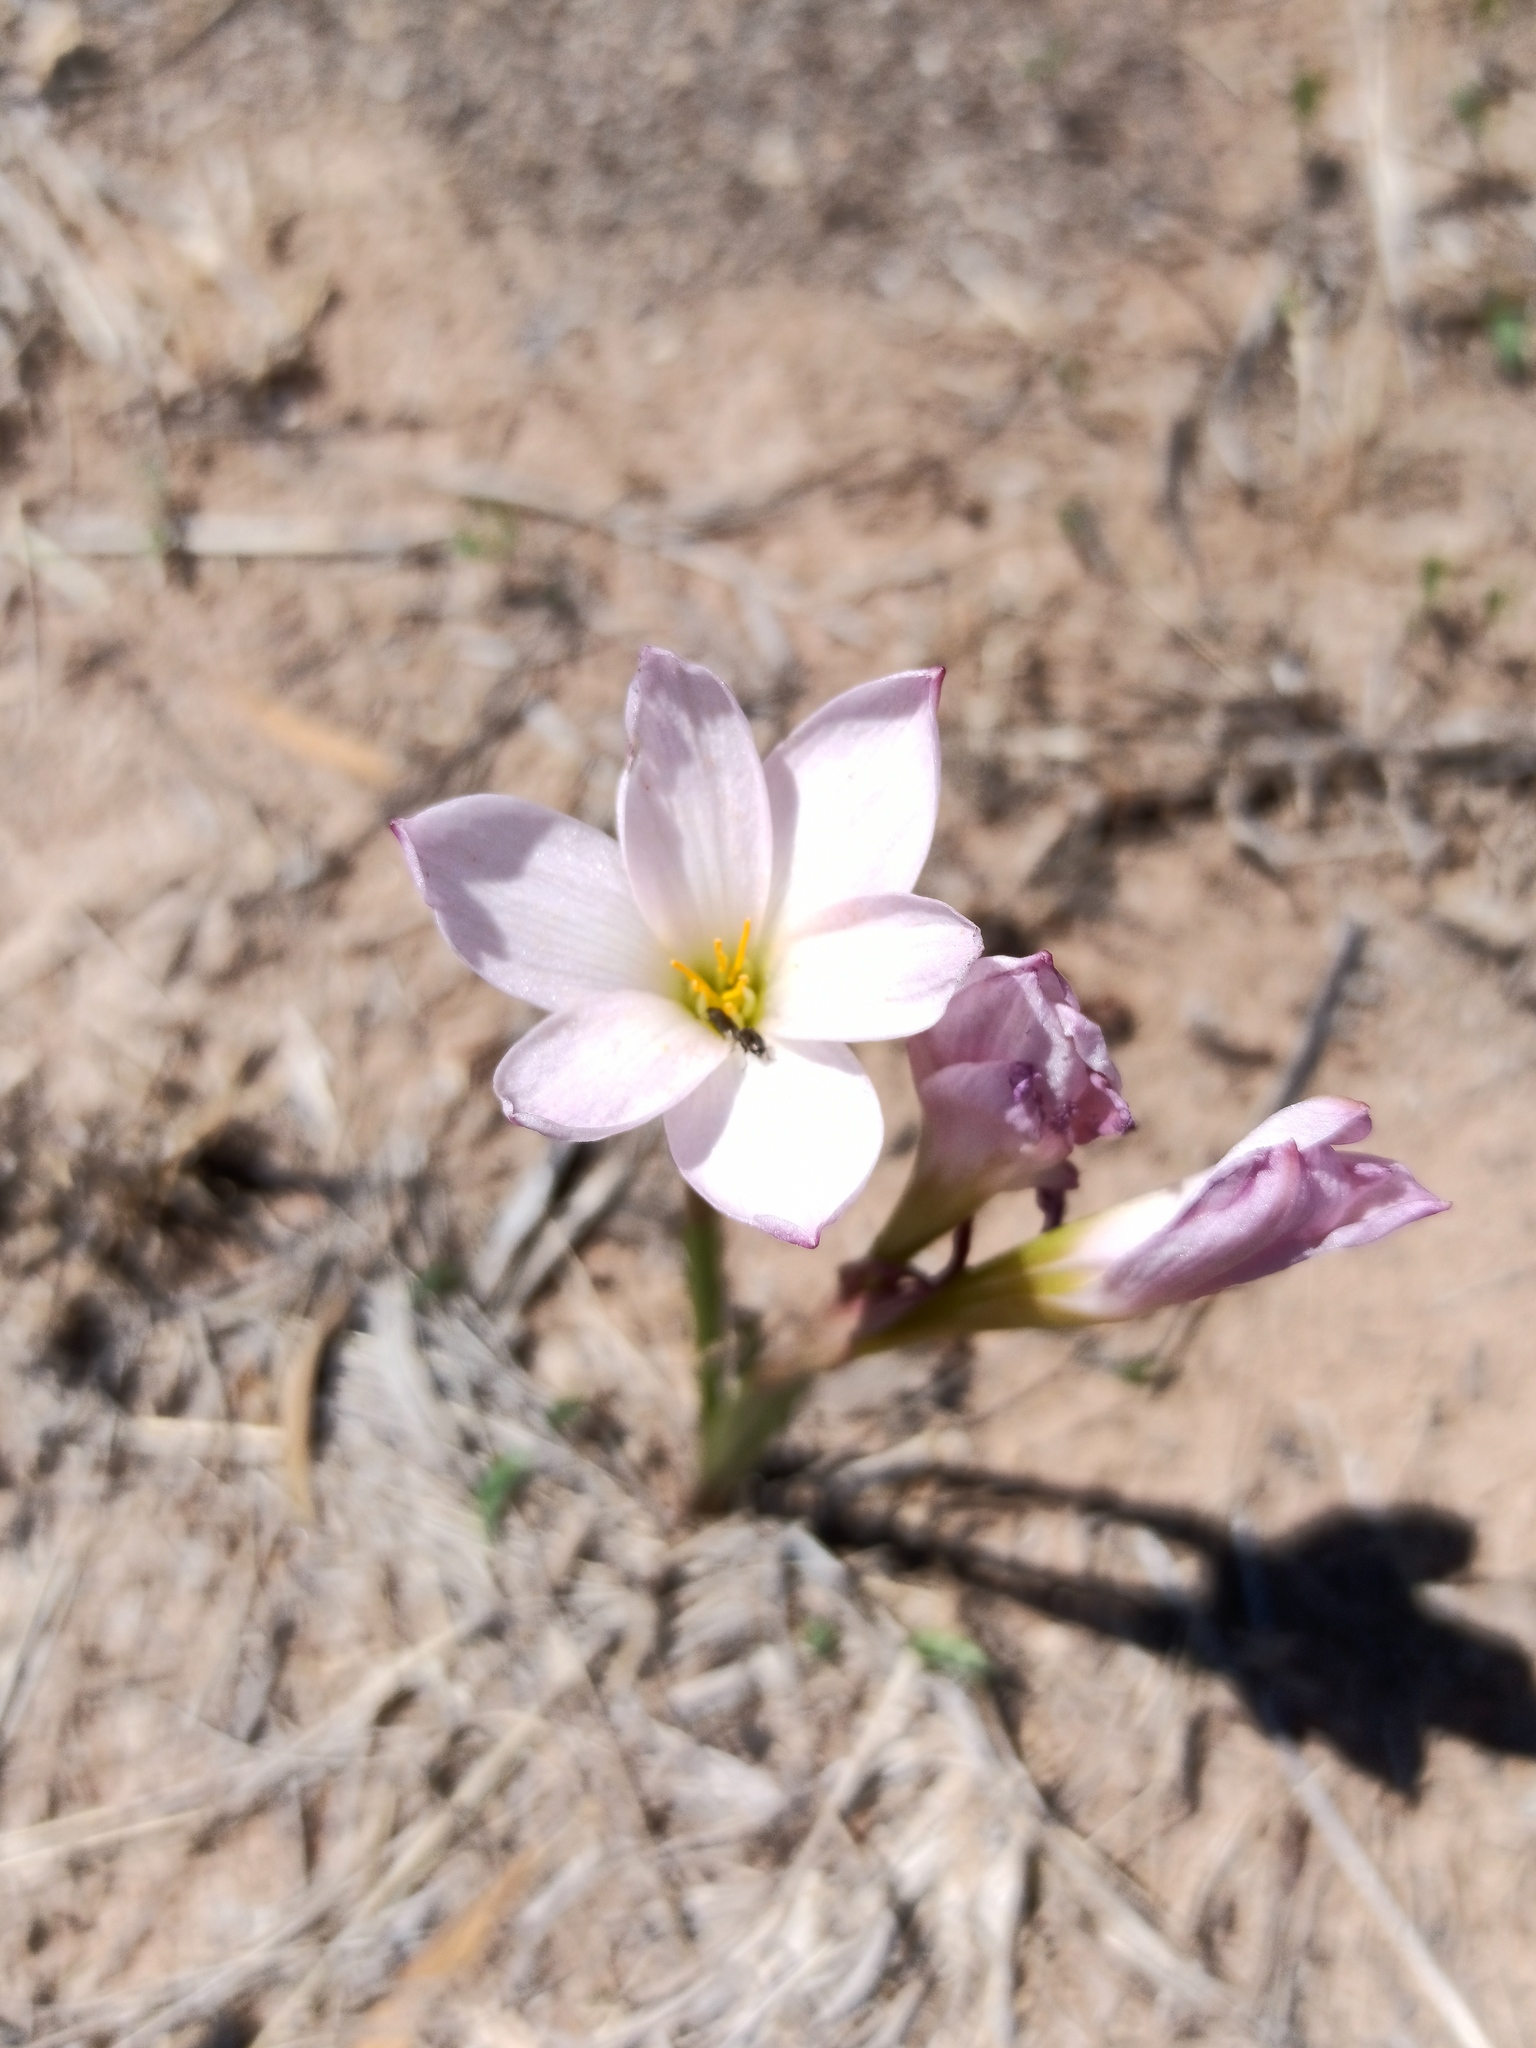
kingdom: Plantae
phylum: Tracheophyta
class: Liliopsida
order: Asparagales
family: Amaryllidaceae
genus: Zephyranthes
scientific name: Zephyranthes fosteri
